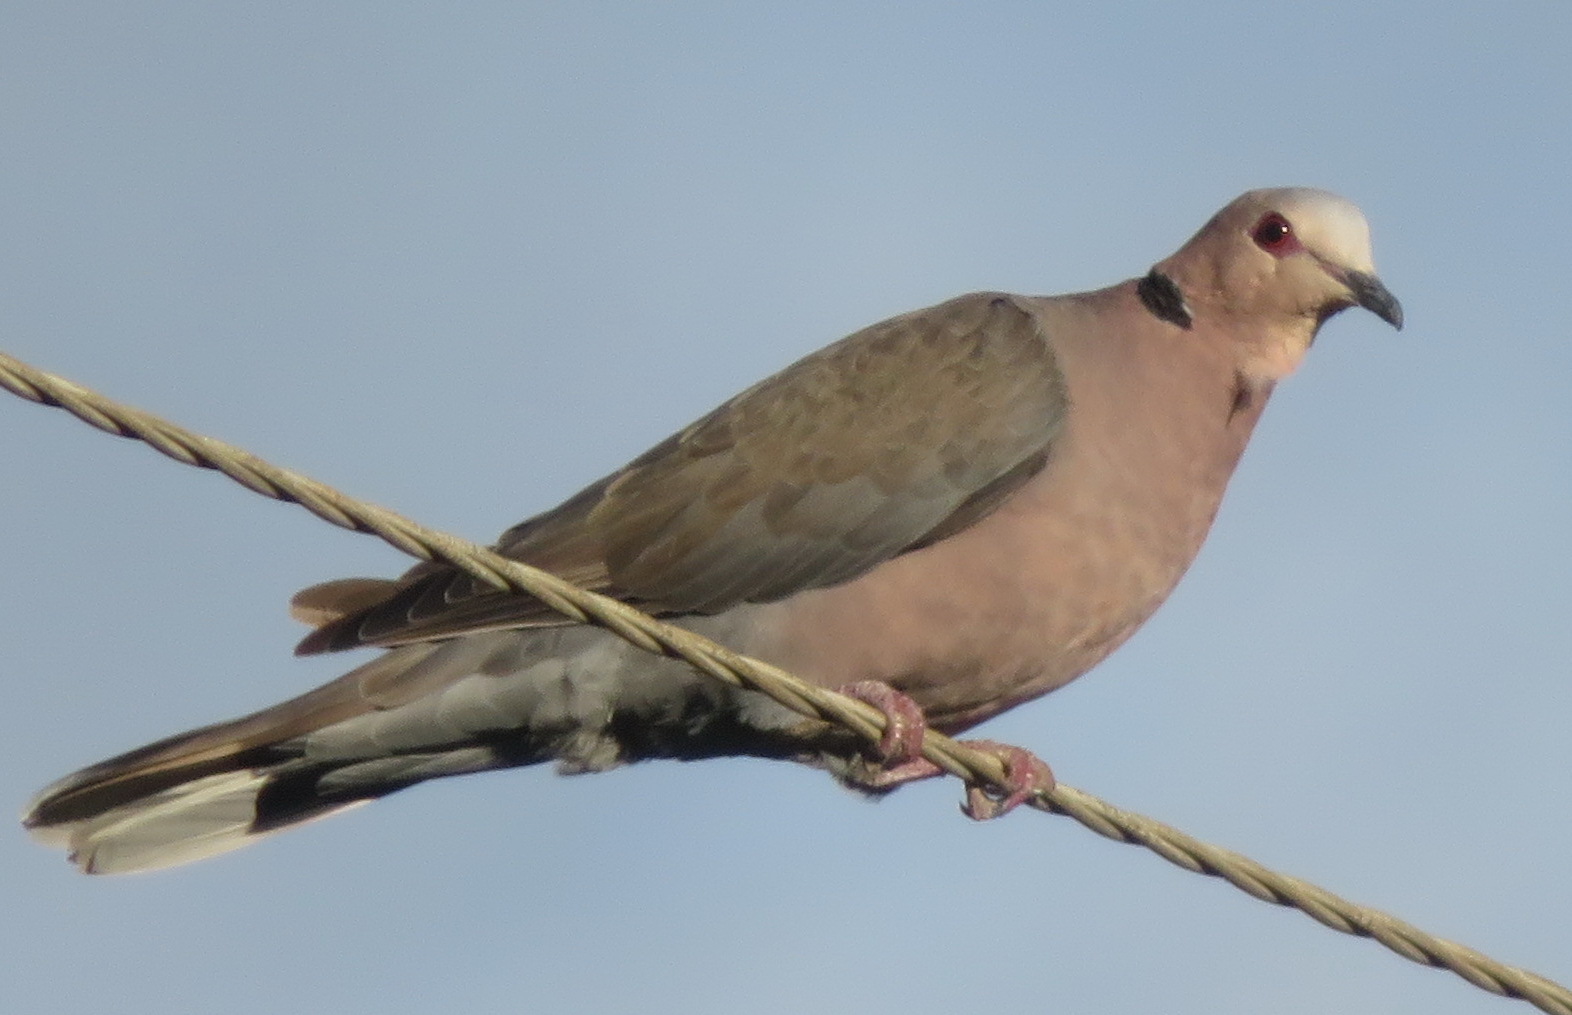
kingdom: Animalia
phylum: Chordata
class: Aves
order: Columbiformes
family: Columbidae
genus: Streptopelia
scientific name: Streptopelia semitorquata
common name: Red-eyed dove
